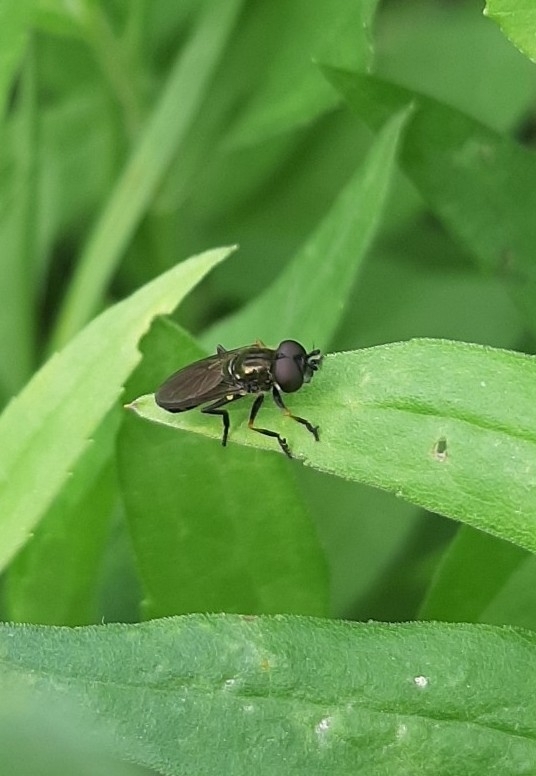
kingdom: Animalia
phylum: Arthropoda
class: Insecta
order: Diptera
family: Syrphidae
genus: Pyrophaena
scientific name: Pyrophaena granditarsa
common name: Hornhand sedgesitter
